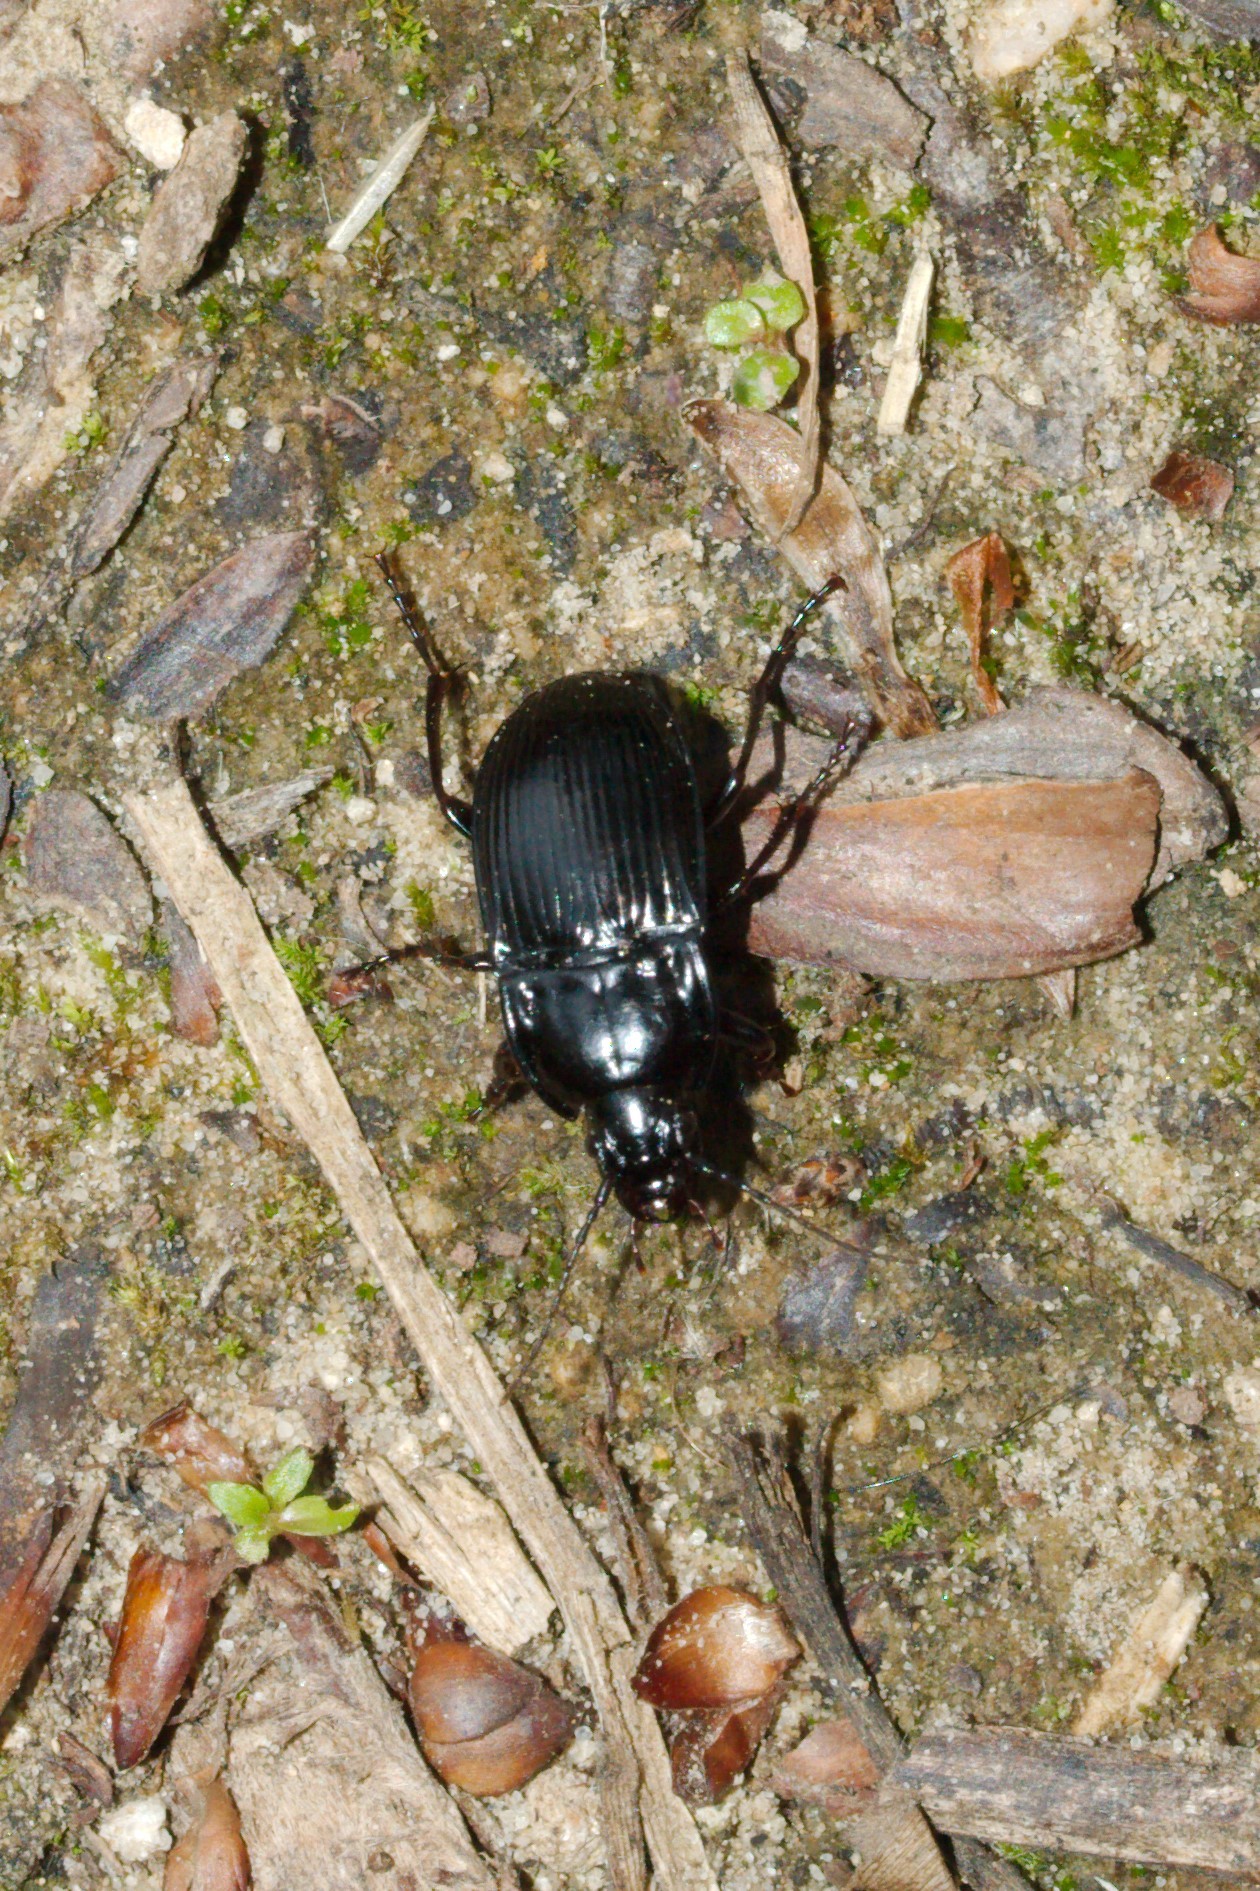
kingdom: Animalia
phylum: Arthropoda
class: Insecta
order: Coleoptera
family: Carabidae
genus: Abax
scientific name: Abax ovalis
